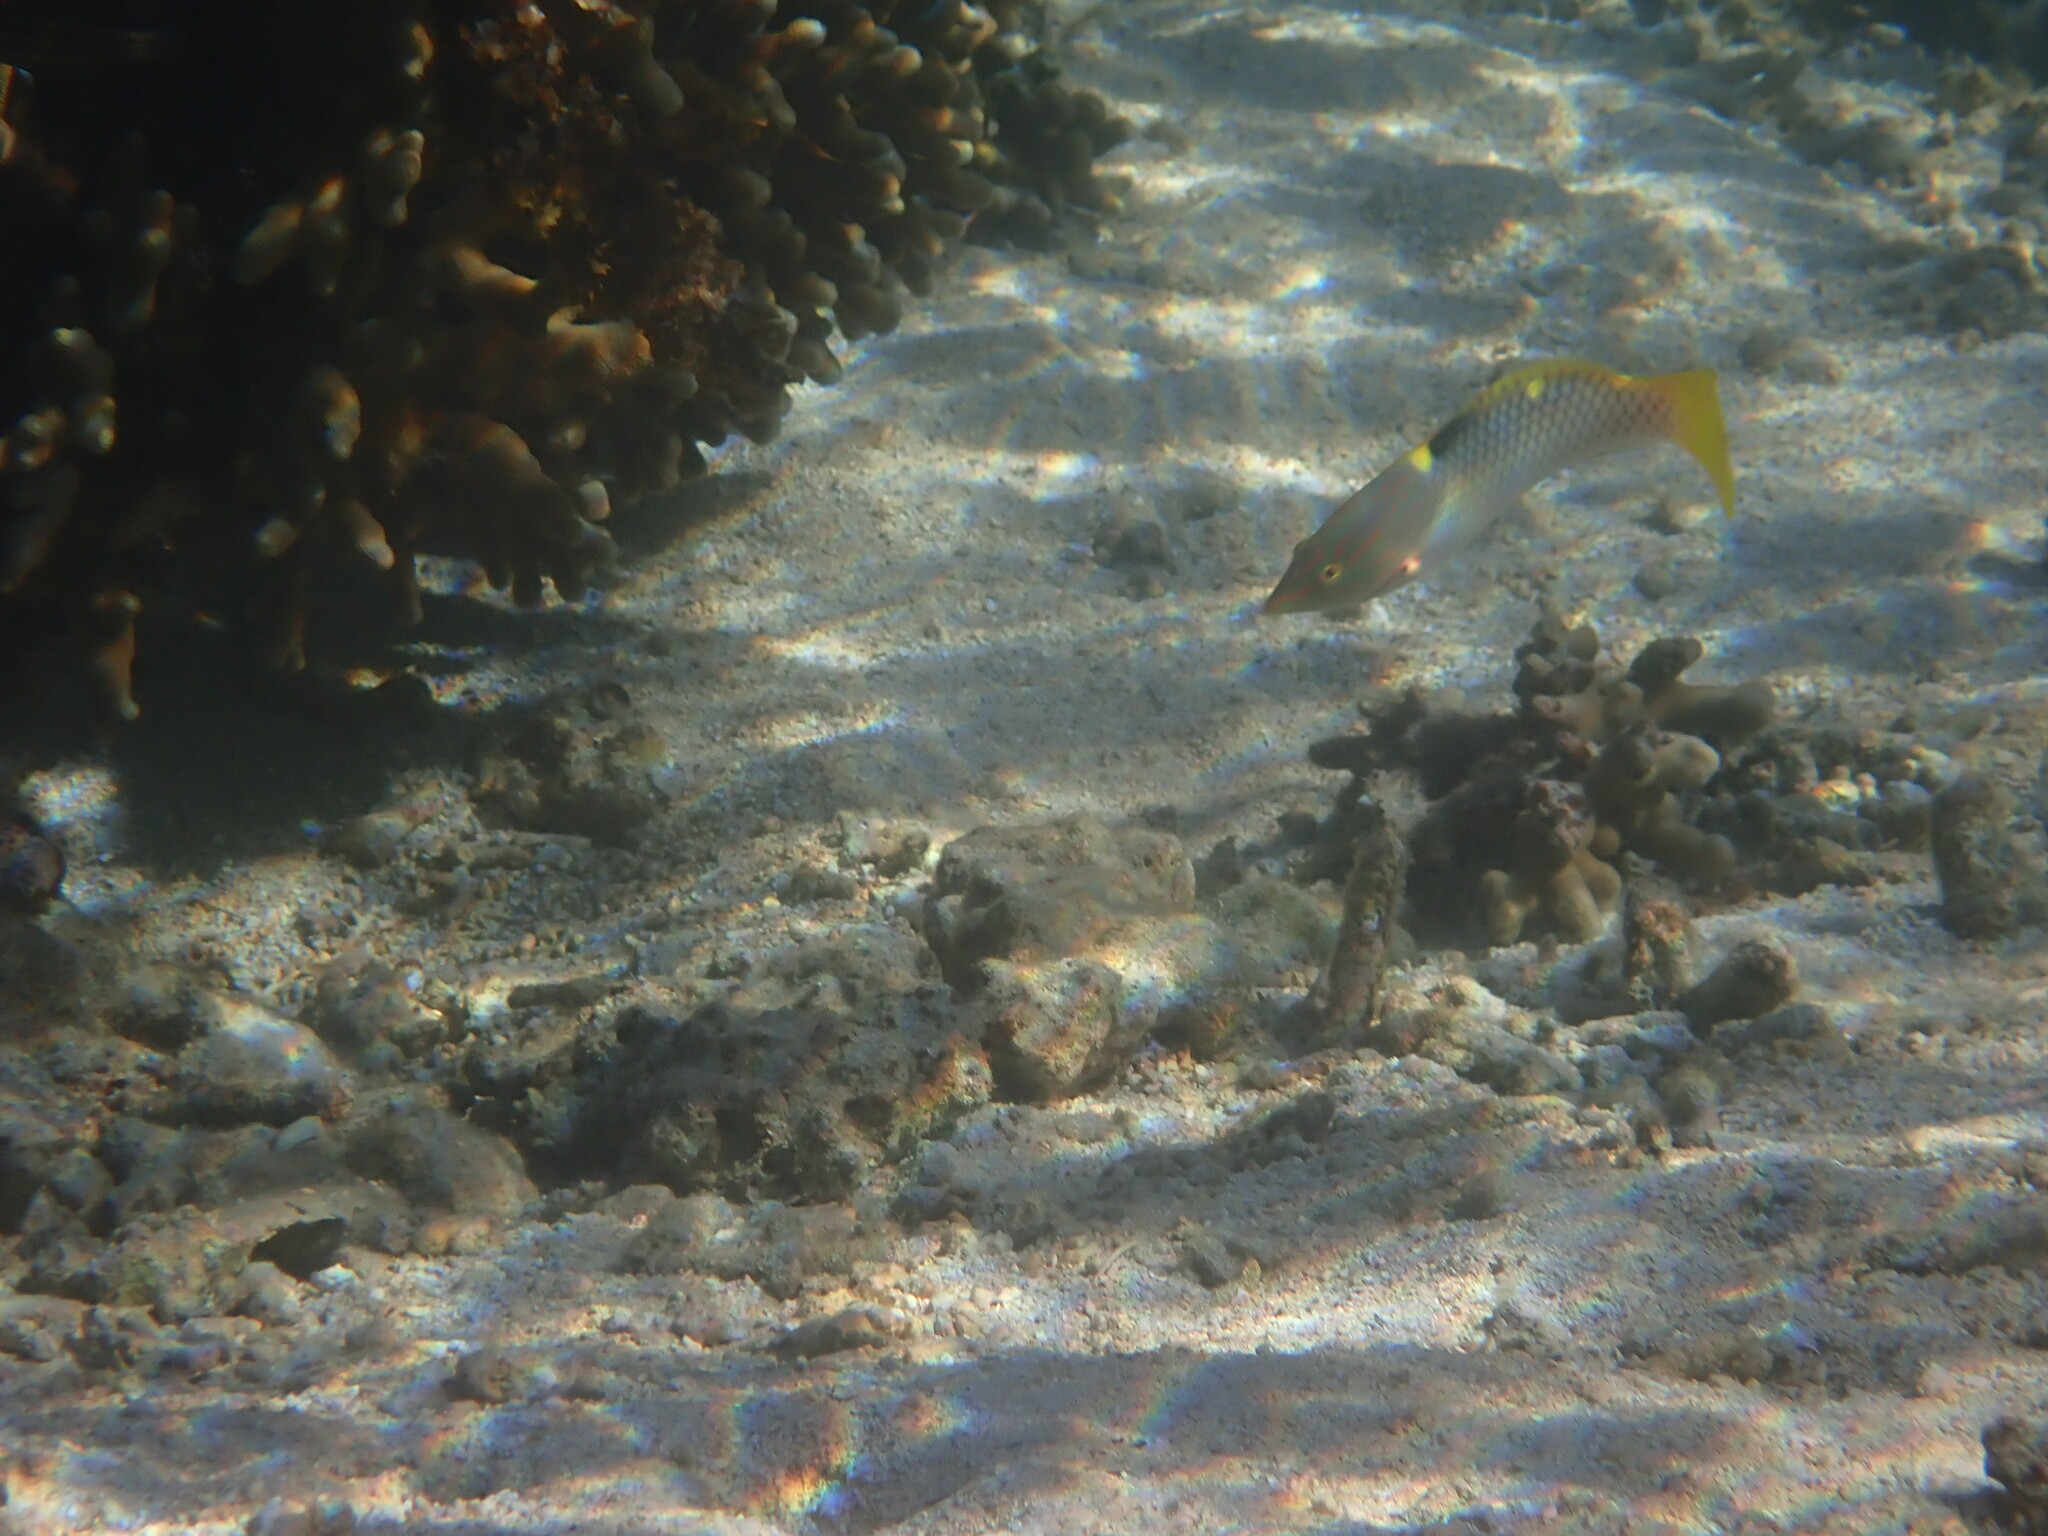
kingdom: Animalia
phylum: Chordata
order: Perciformes
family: Labridae
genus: Halichoeres
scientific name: Halichoeres hortulanus
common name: Checkerboard wrasse
